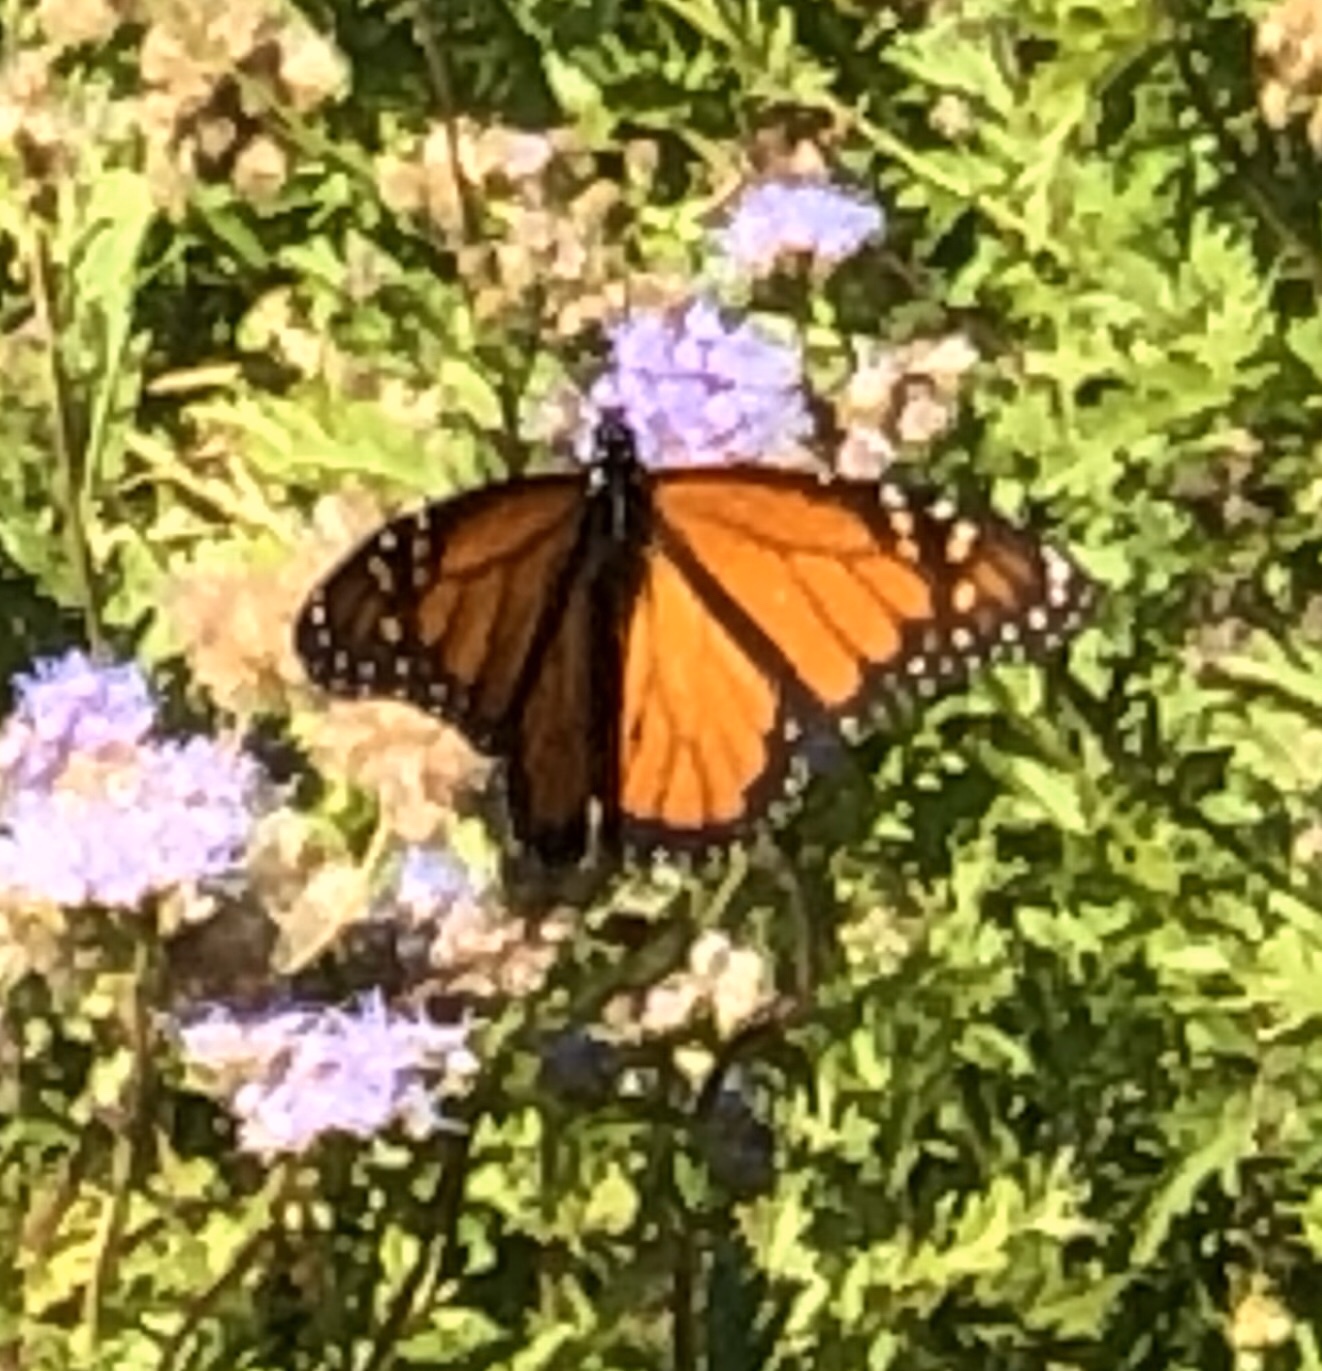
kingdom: Animalia
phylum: Arthropoda
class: Insecta
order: Lepidoptera
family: Nymphalidae
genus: Danaus
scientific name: Danaus plexippus
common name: Monarch
